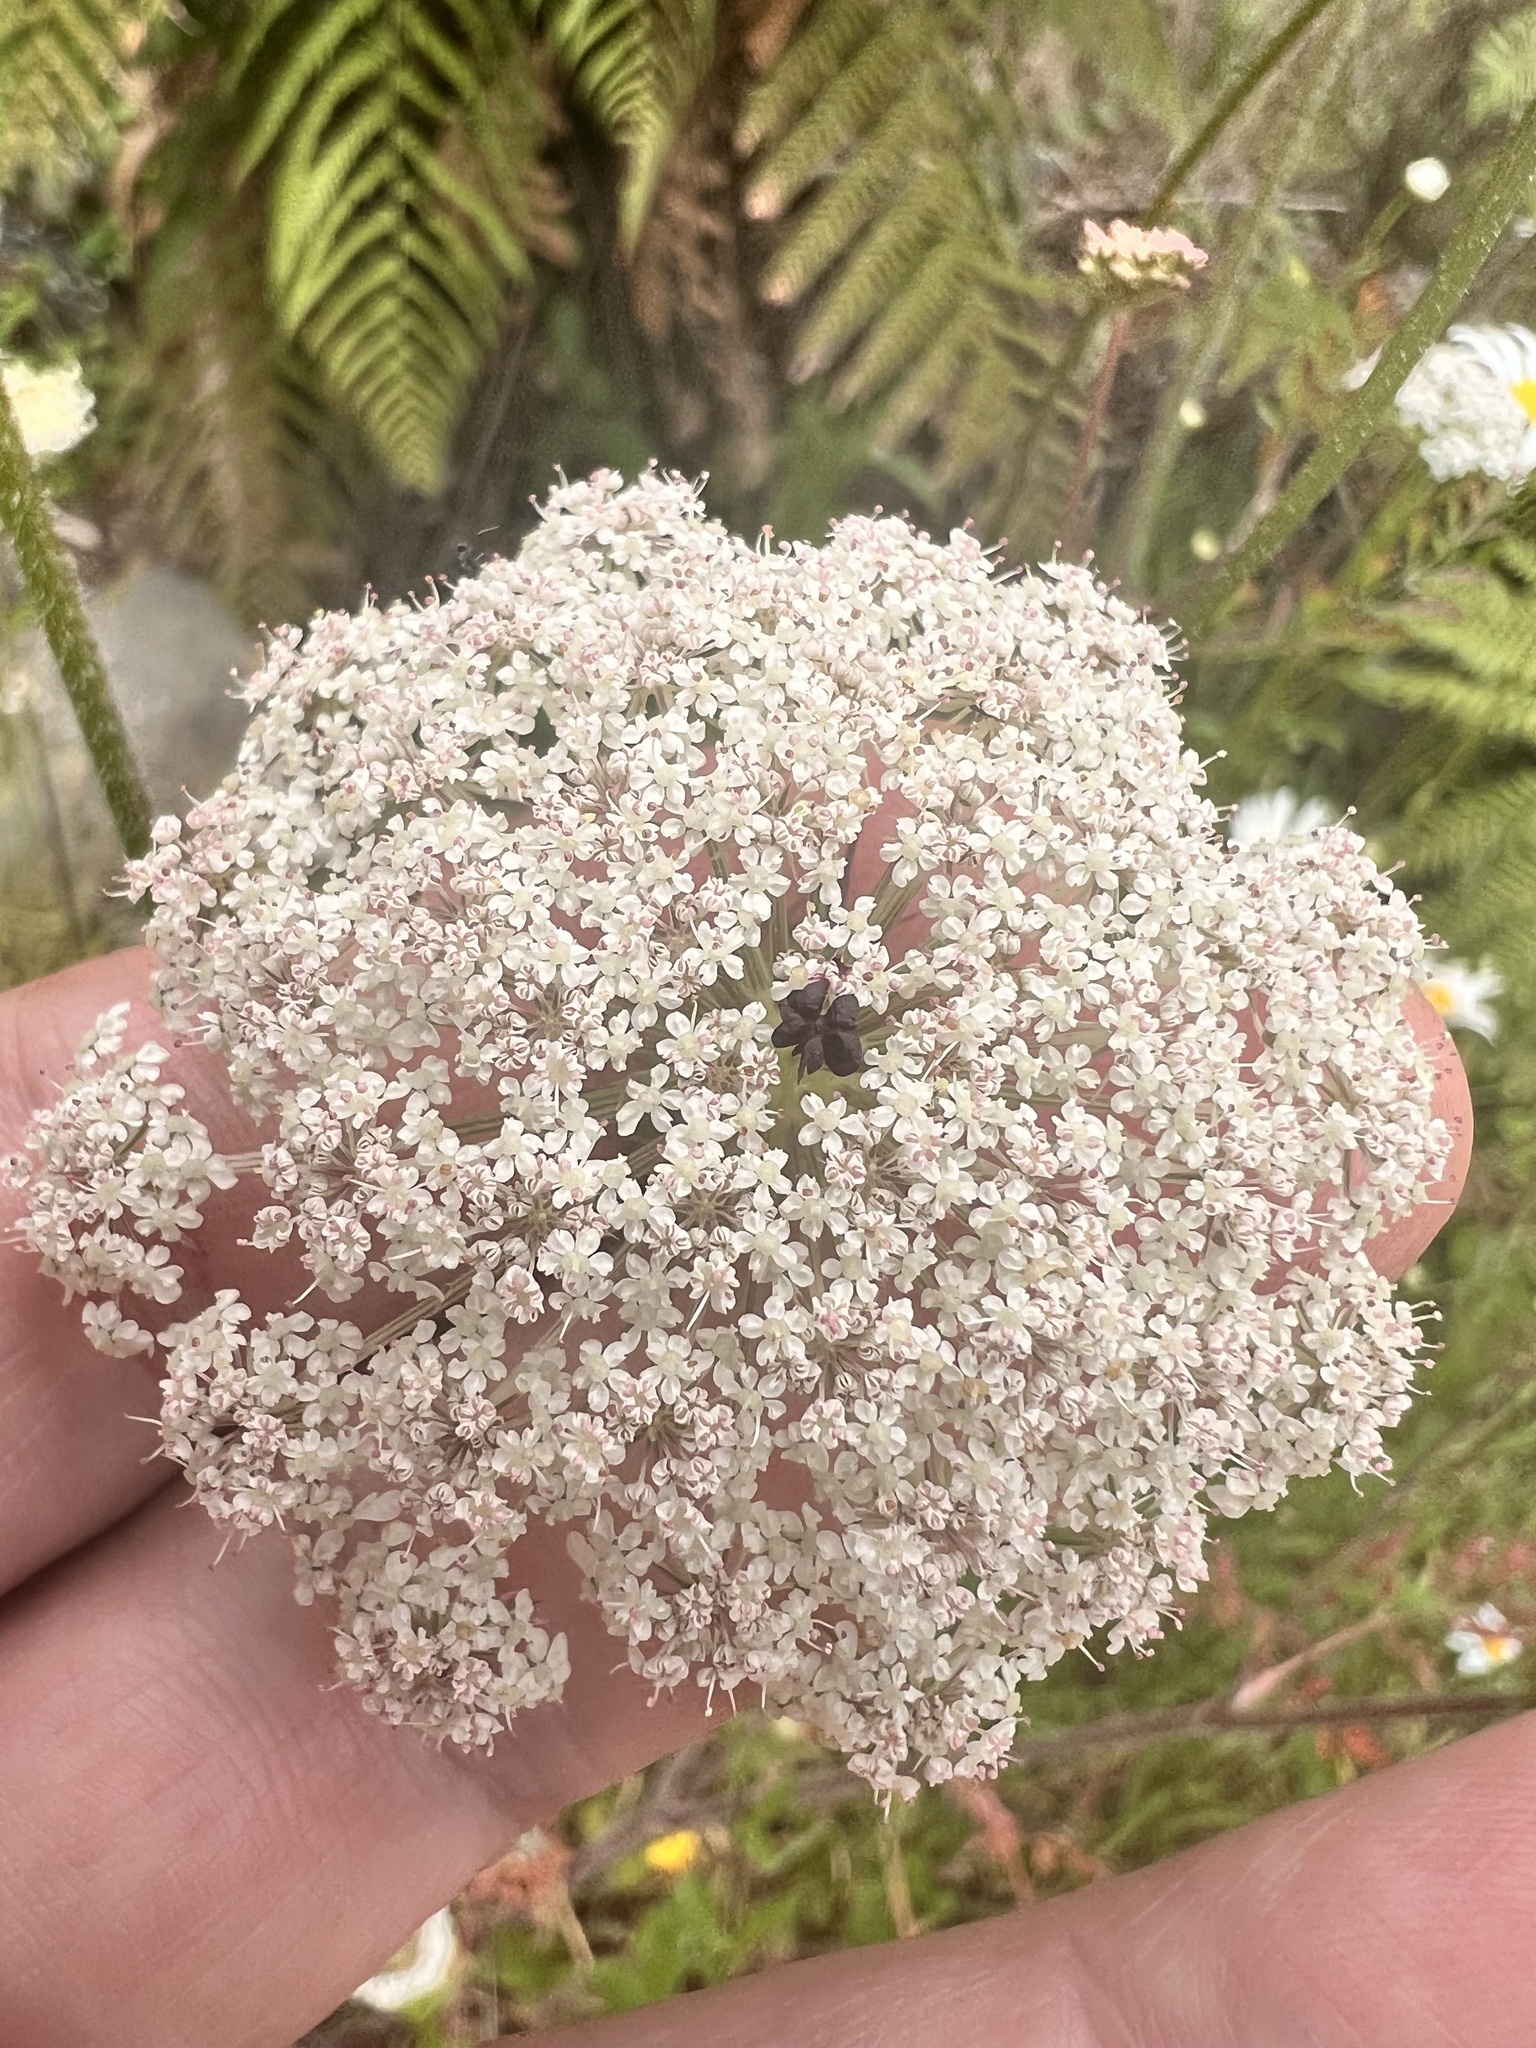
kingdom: Plantae
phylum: Tracheophyta
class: Magnoliopsida
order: Apiales
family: Apiaceae
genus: Daucus
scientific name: Daucus carota
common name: Wild carrot
